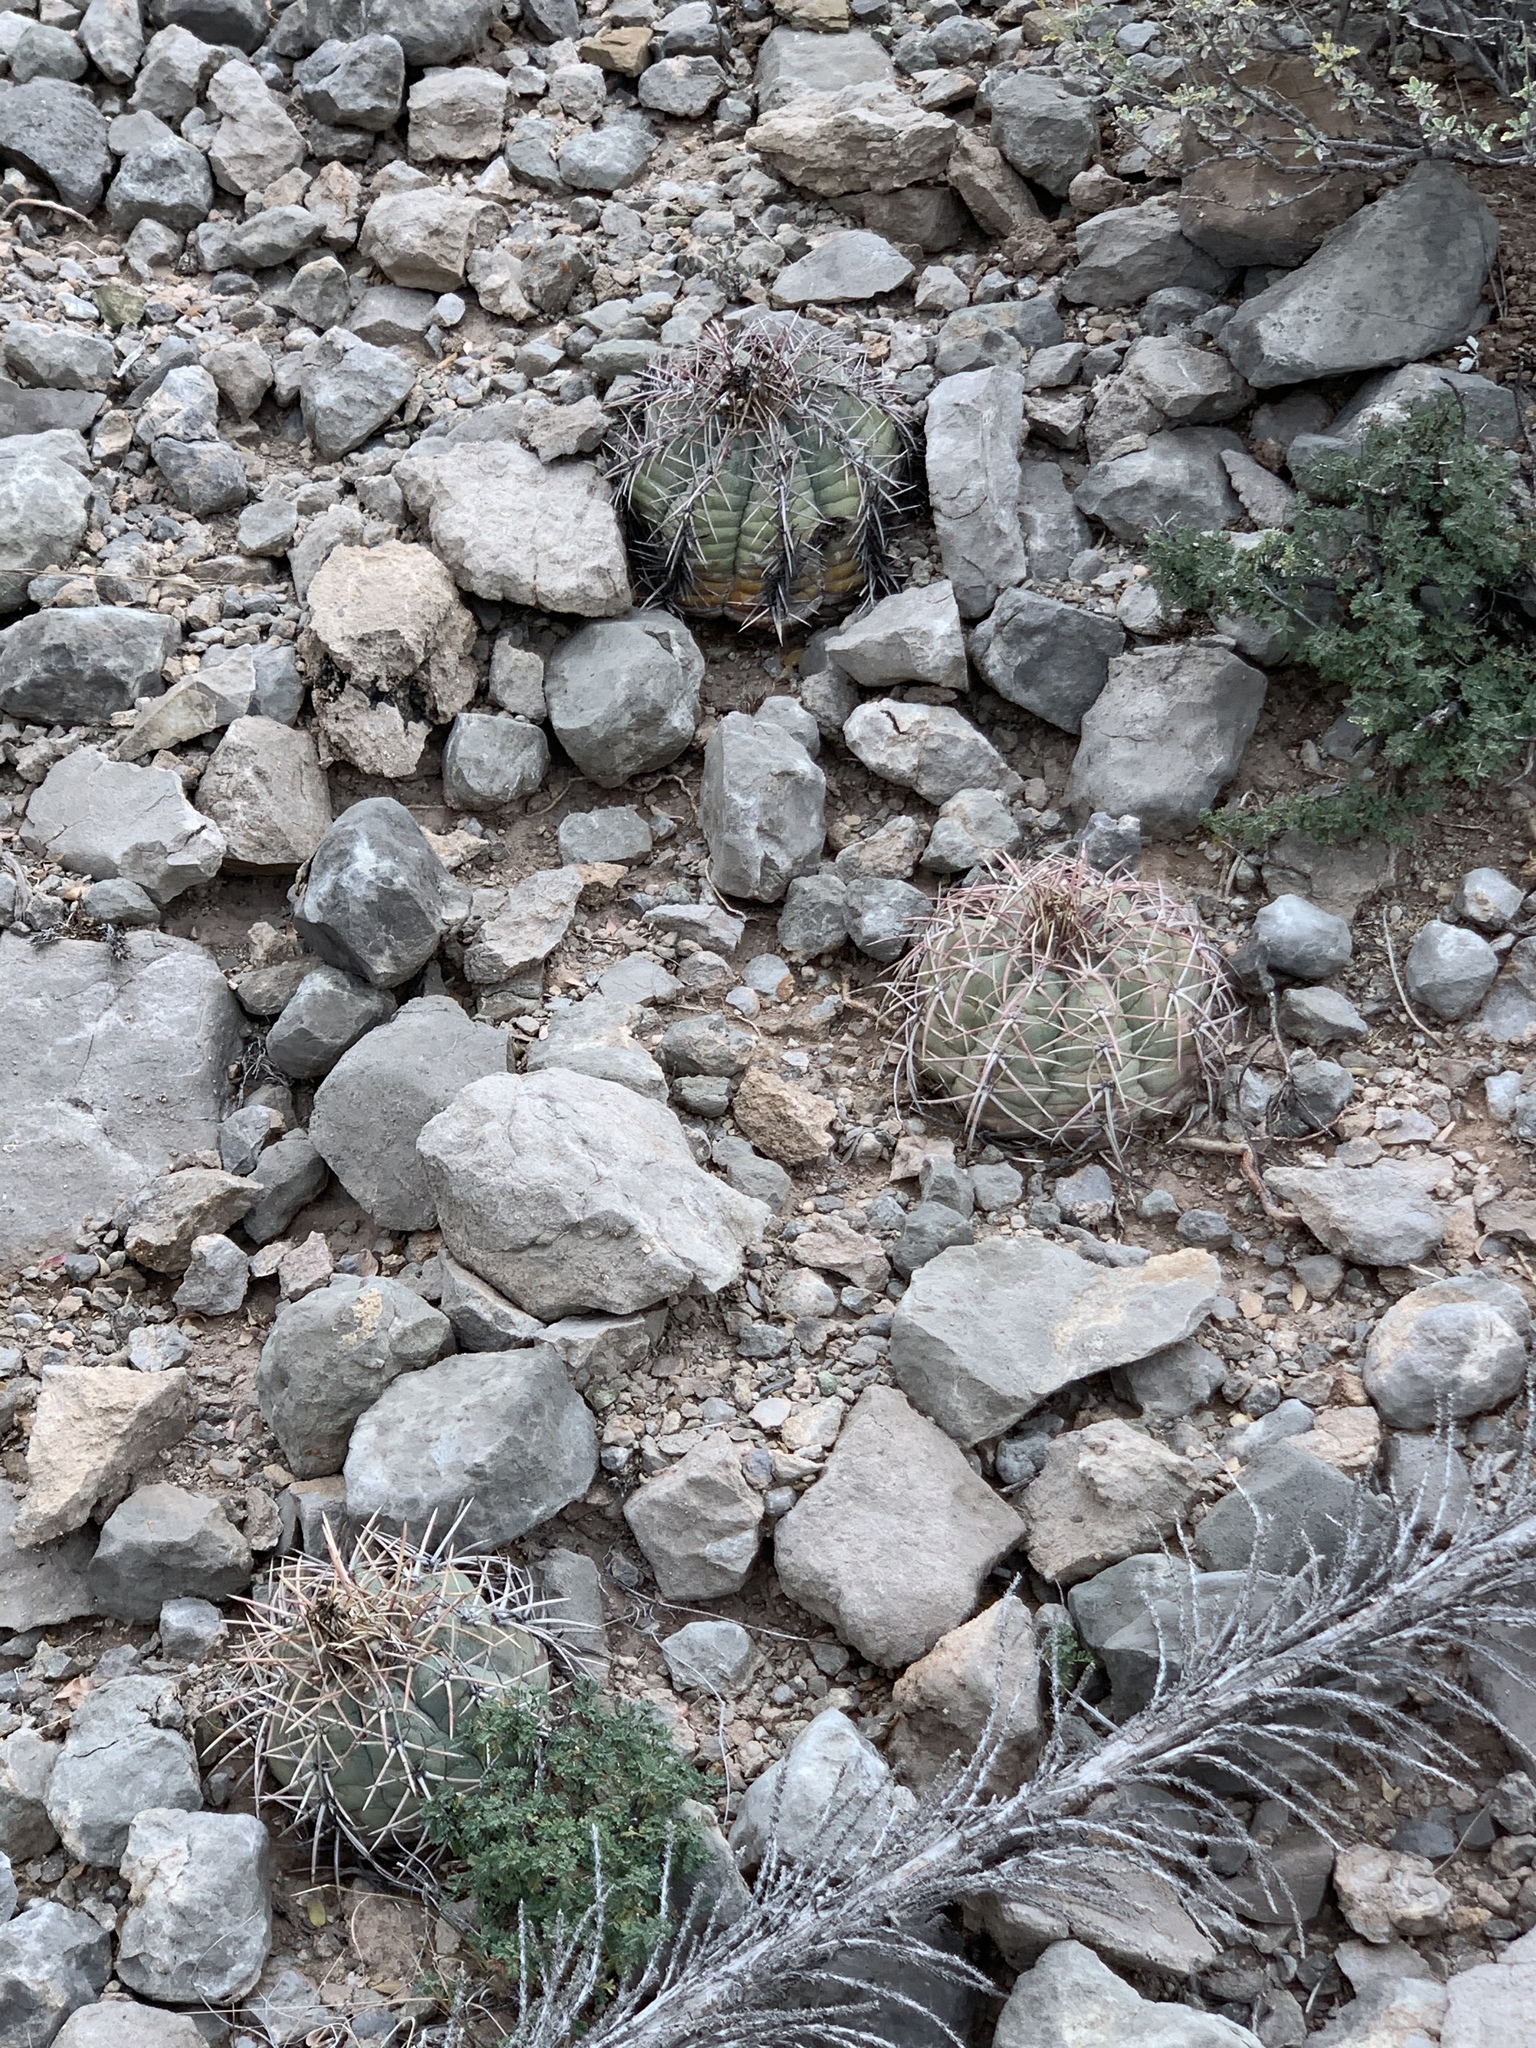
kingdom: Plantae
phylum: Tracheophyta
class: Magnoliopsida
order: Caryophyllales
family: Cactaceae
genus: Echinocactus
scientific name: Echinocactus horizonthalonius
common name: Devilshead
